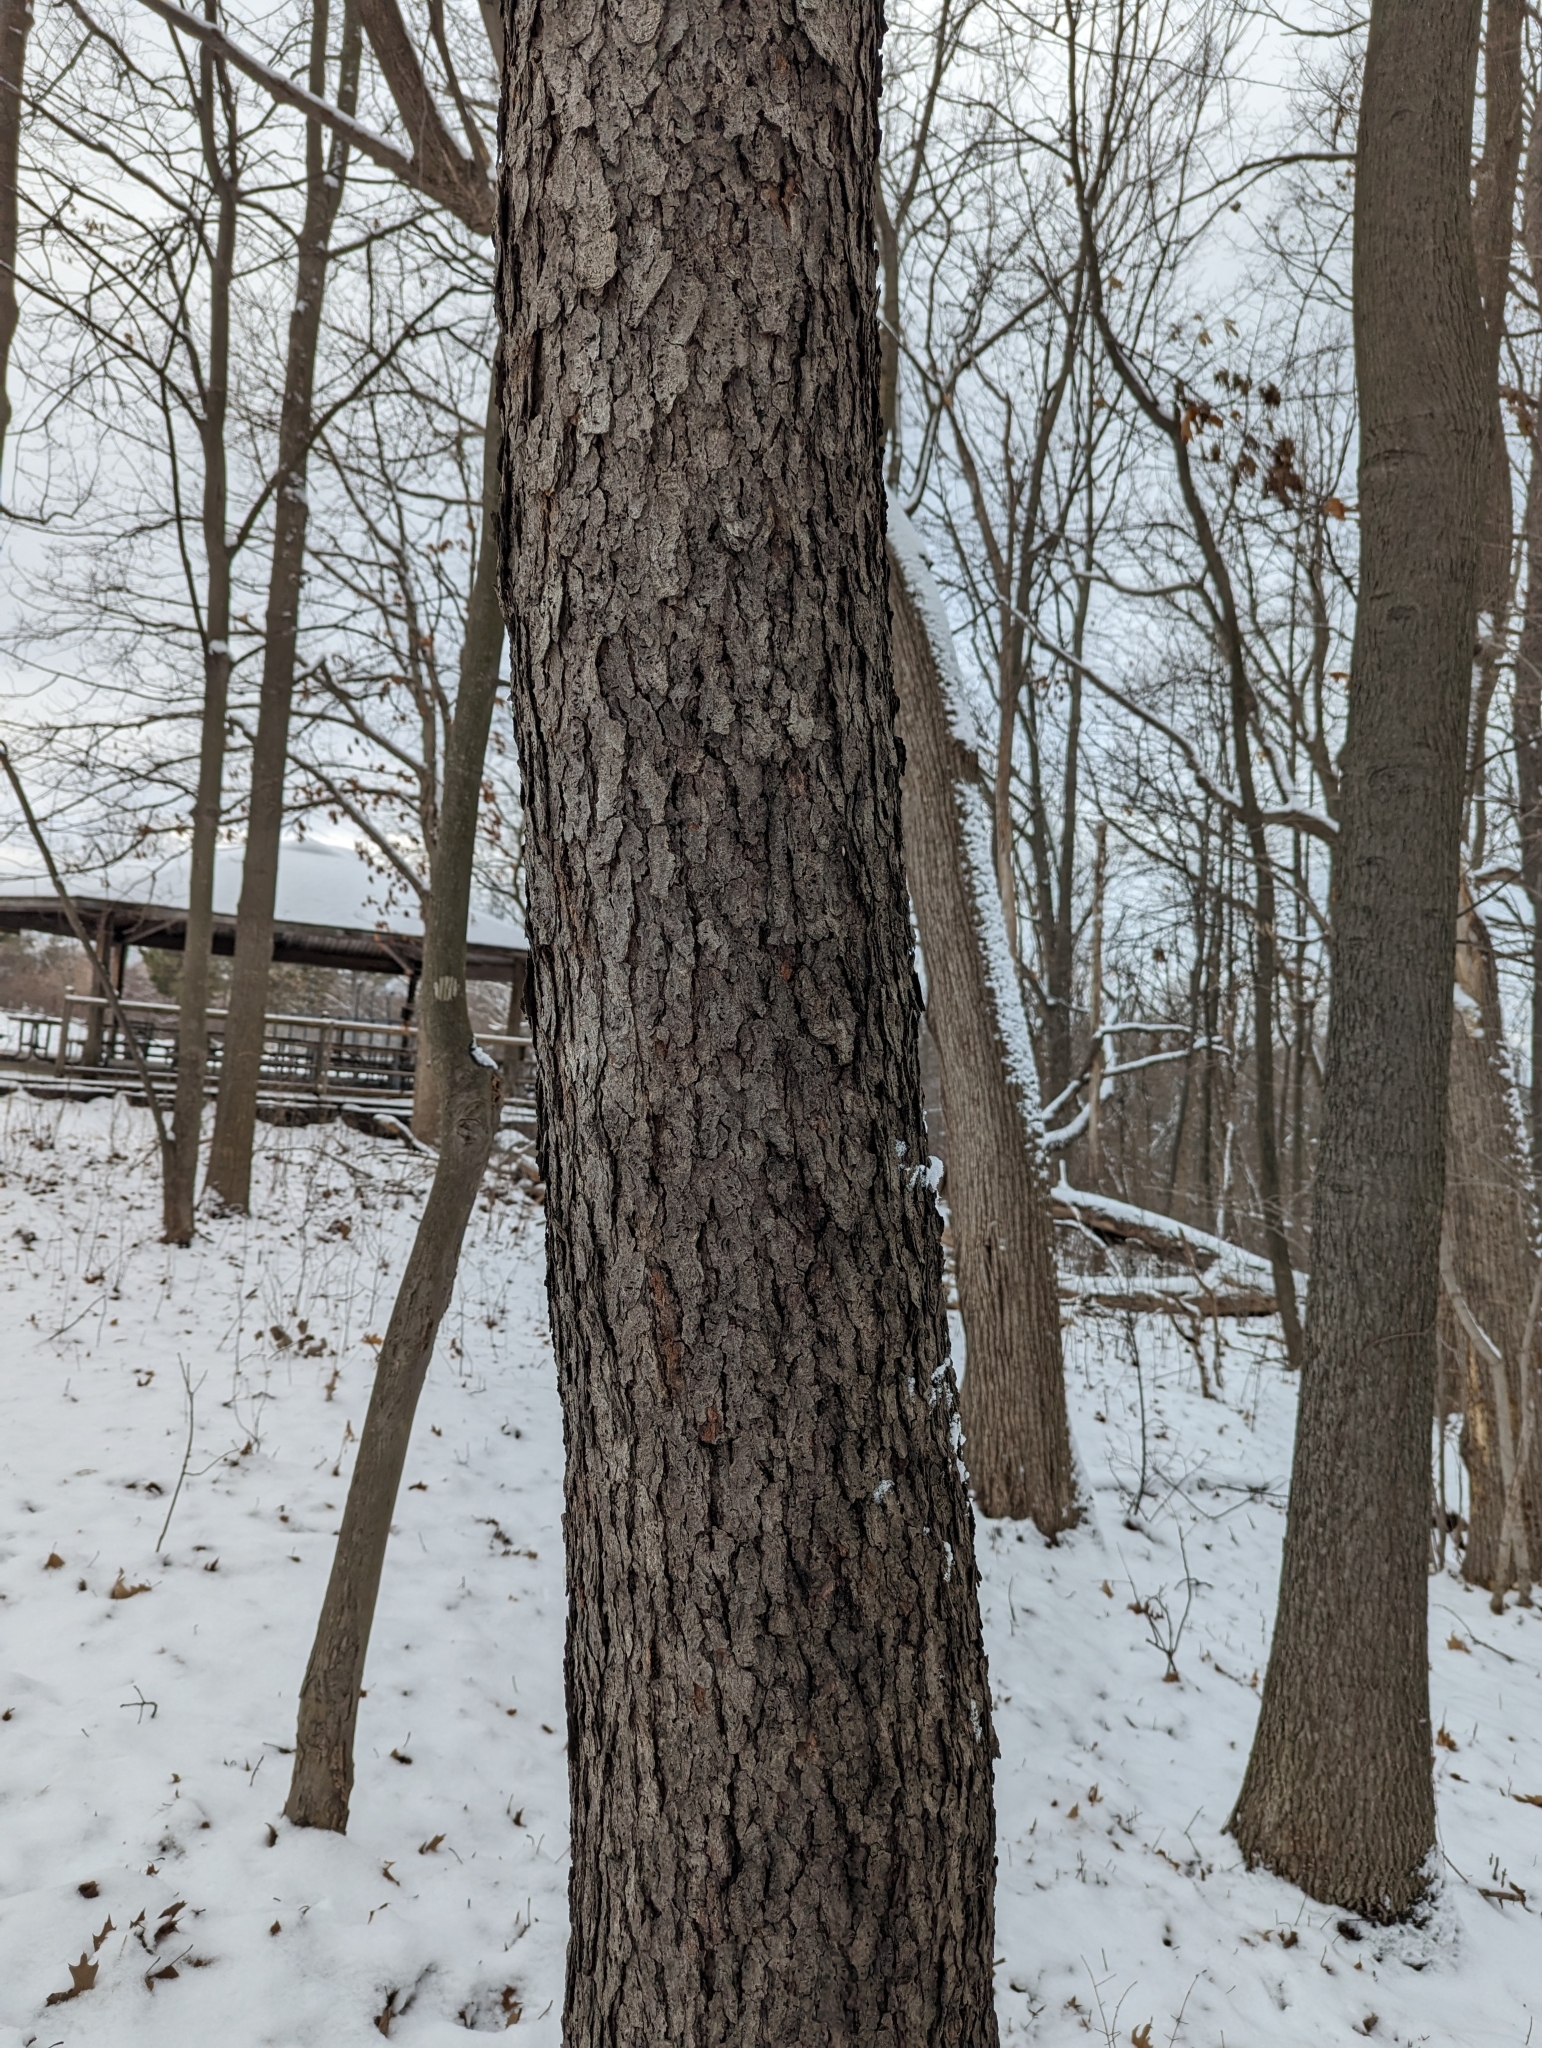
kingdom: Plantae
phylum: Tracheophyta
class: Magnoliopsida
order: Rosales
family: Rosaceae
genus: Prunus
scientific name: Prunus serotina
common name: Black cherry
